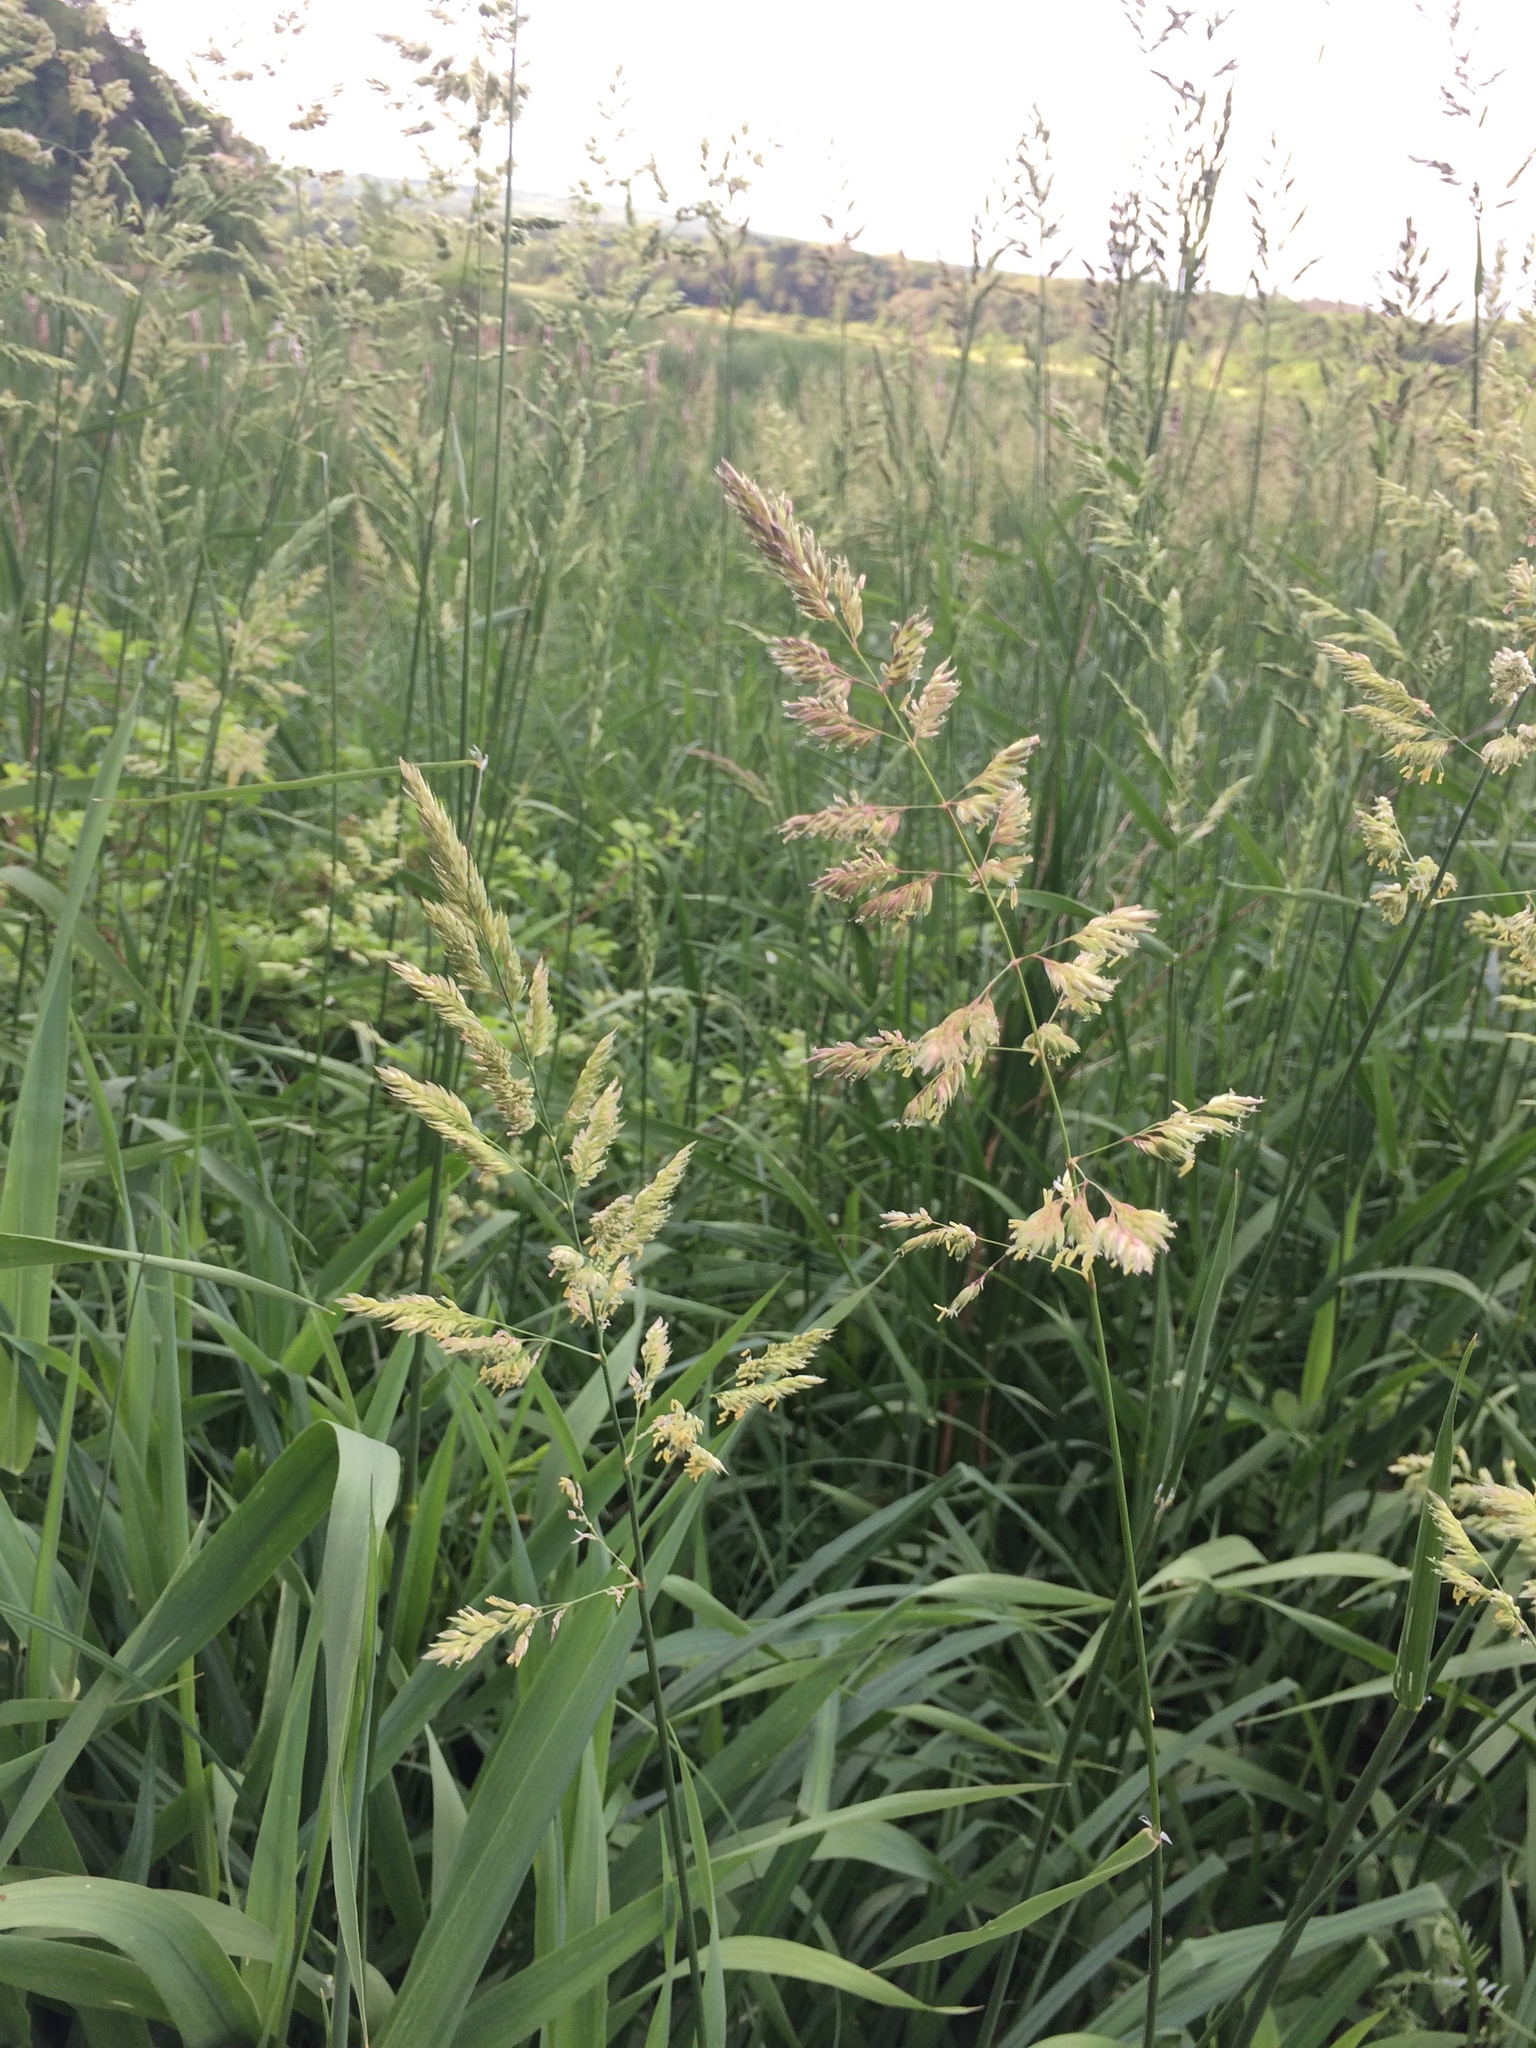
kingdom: Plantae
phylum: Tracheophyta
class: Liliopsida
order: Poales
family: Poaceae
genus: Phalaris
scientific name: Phalaris arundinacea
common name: Reed canary-grass
